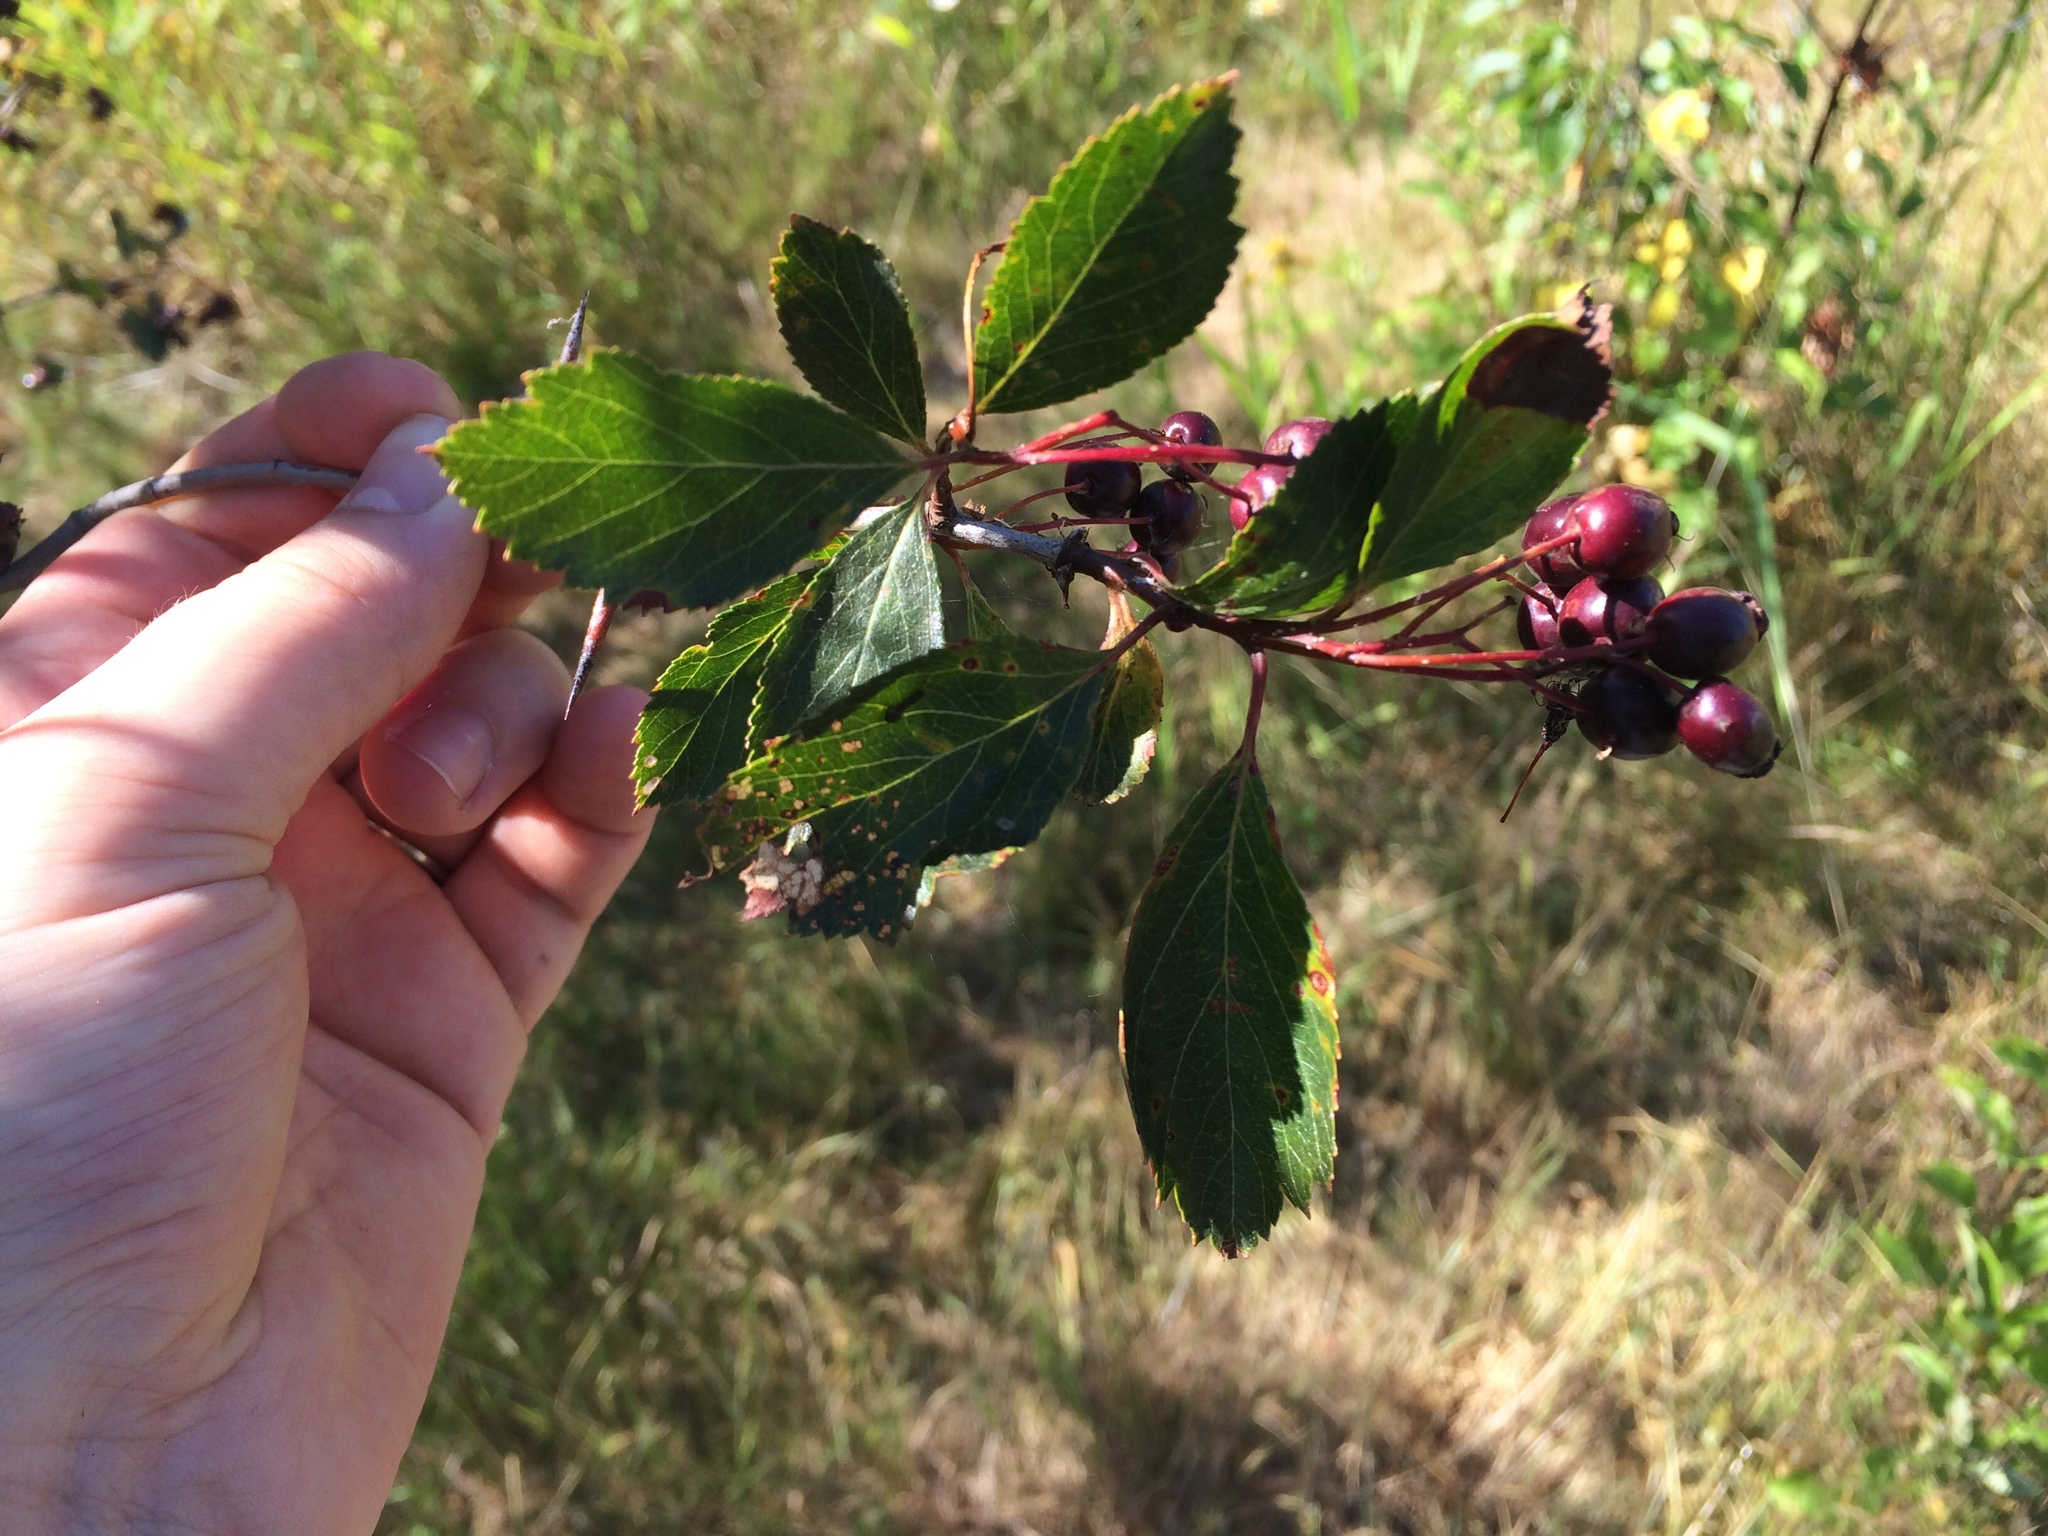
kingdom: Plantae
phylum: Tracheophyta
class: Magnoliopsida
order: Rosales
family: Rosaceae
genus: Crataegus
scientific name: Crataegus douglasii
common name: Black hawthorn
